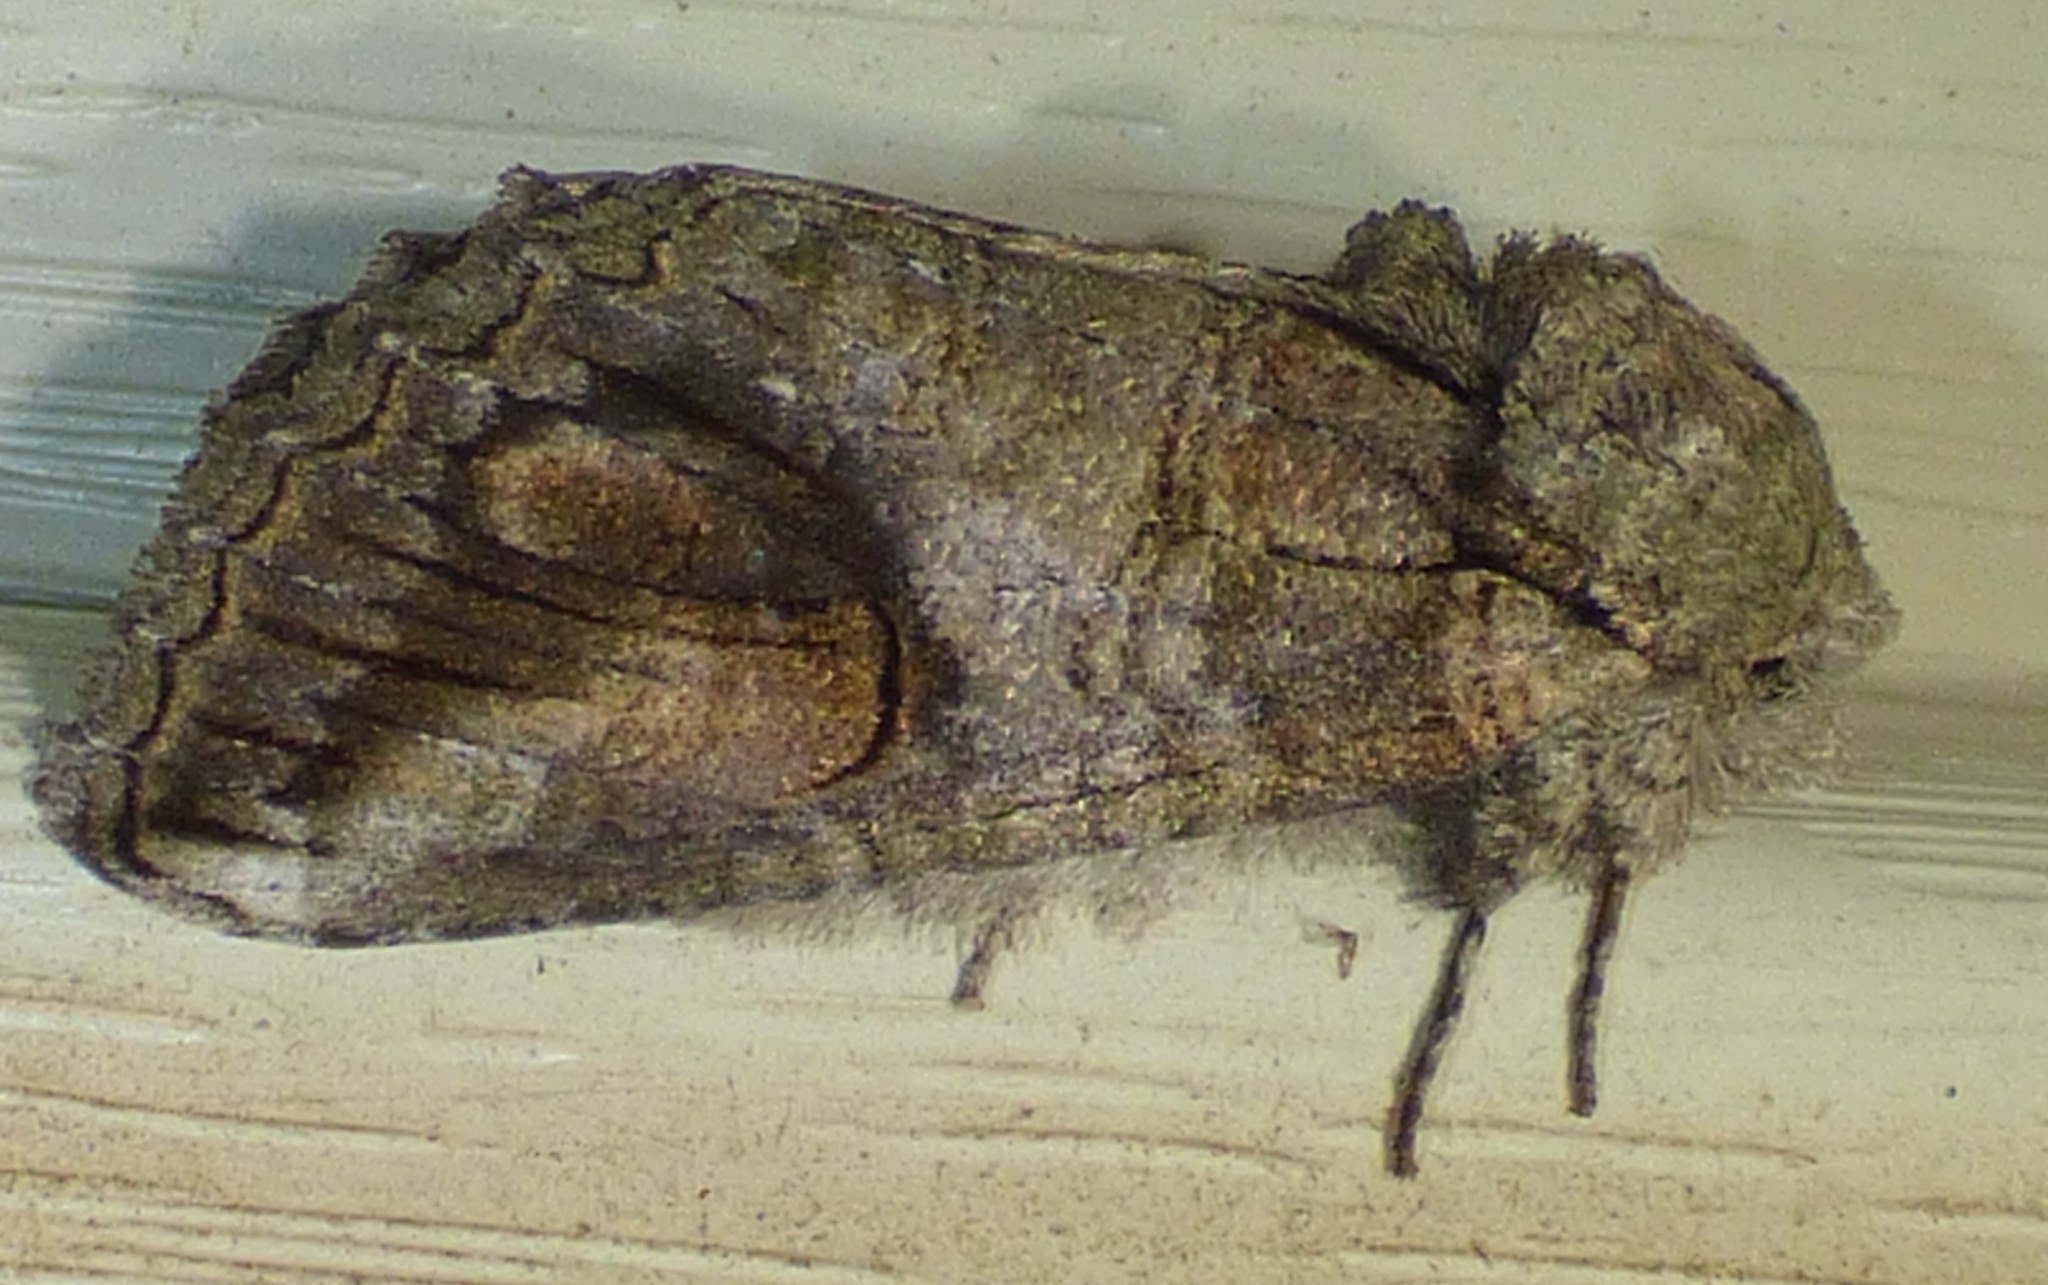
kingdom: Animalia
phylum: Arthropoda
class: Insecta
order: Lepidoptera
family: Notodontidae
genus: Heterocampa
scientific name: Heterocampa obliqua
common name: Oblique heterocampa
